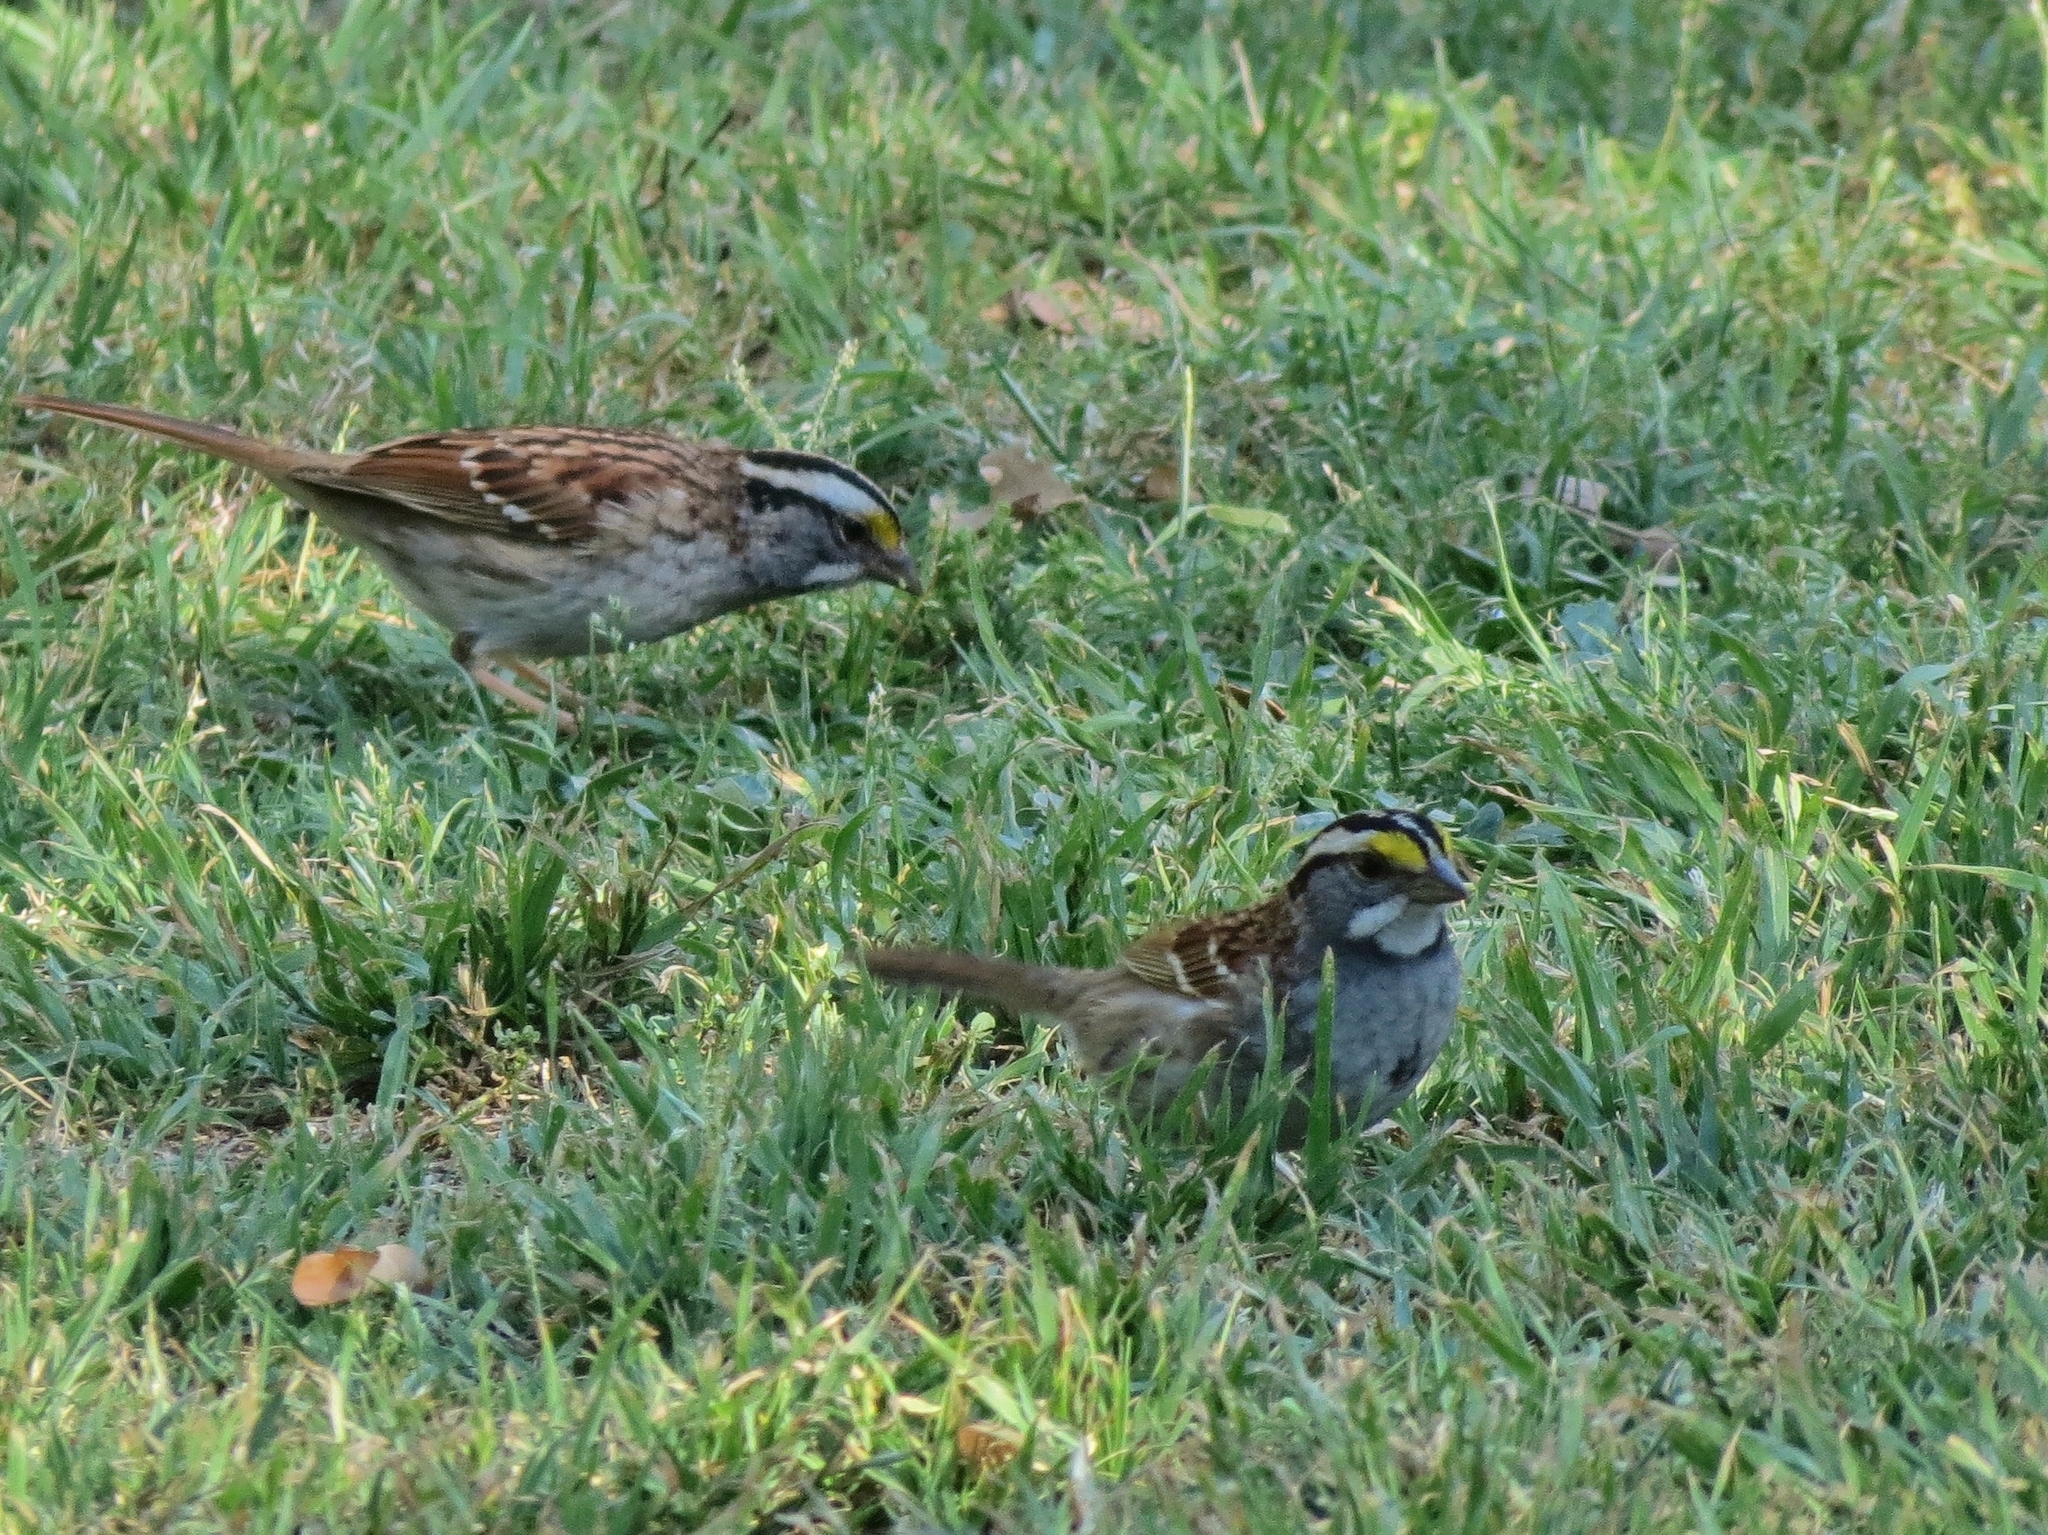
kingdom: Animalia
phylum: Chordata
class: Aves
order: Passeriformes
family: Passerellidae
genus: Zonotrichia
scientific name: Zonotrichia albicollis
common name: White-throated sparrow
